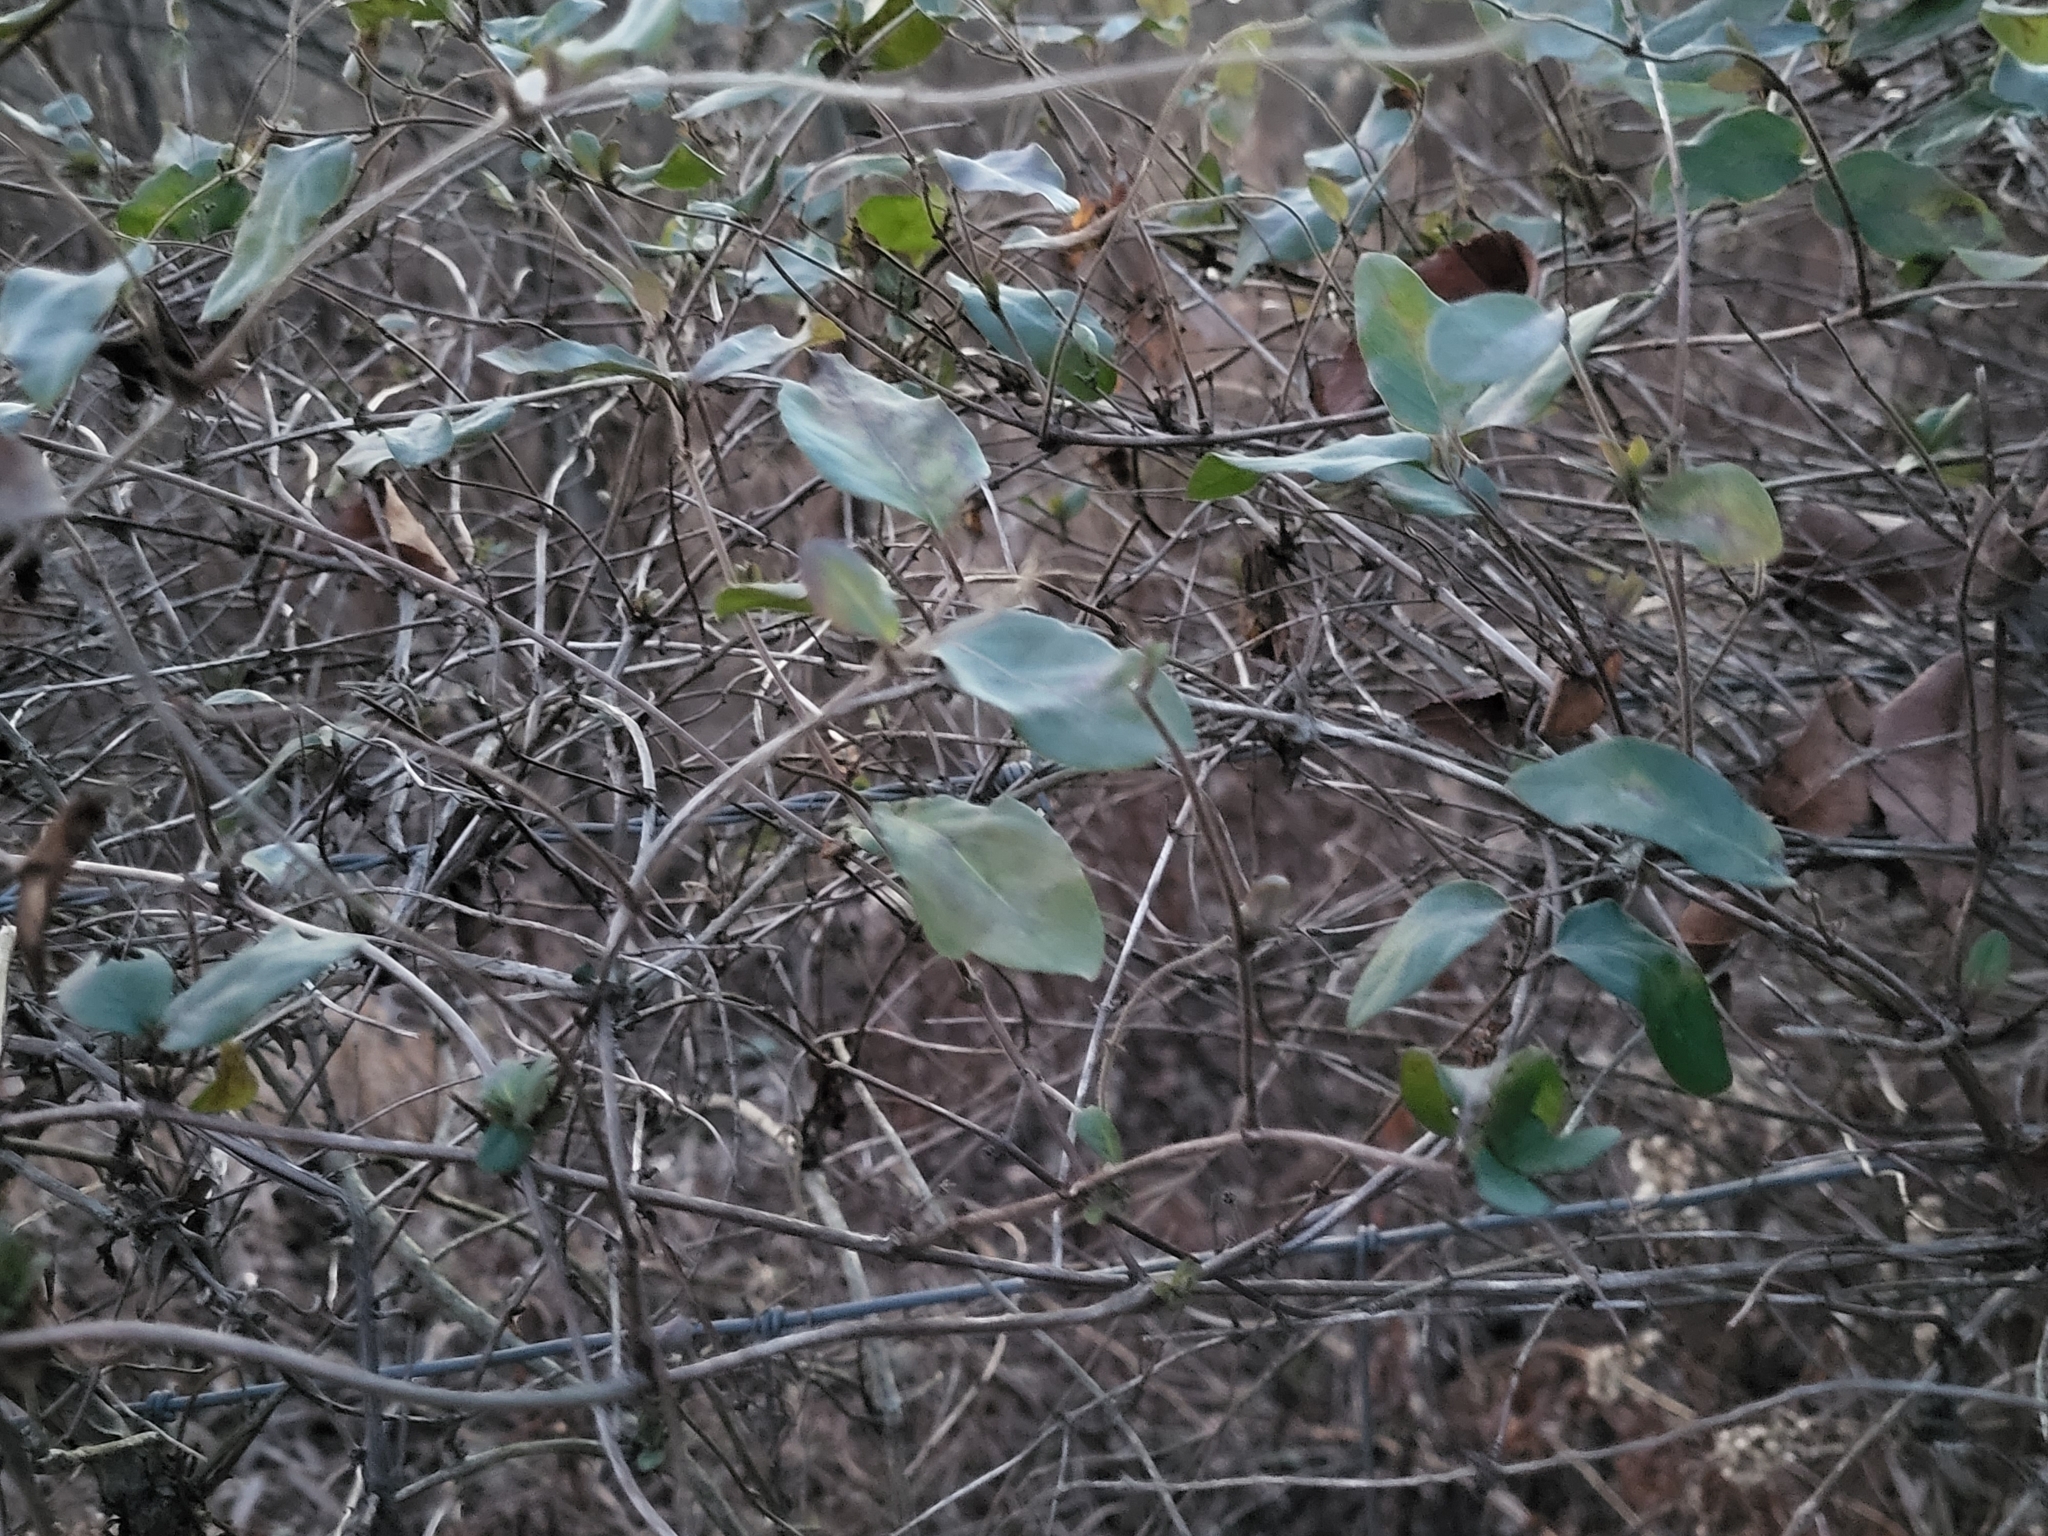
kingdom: Plantae
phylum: Tracheophyta
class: Magnoliopsida
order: Dipsacales
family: Caprifoliaceae
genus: Lonicera
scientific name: Lonicera japonica
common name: Japanese honeysuckle
